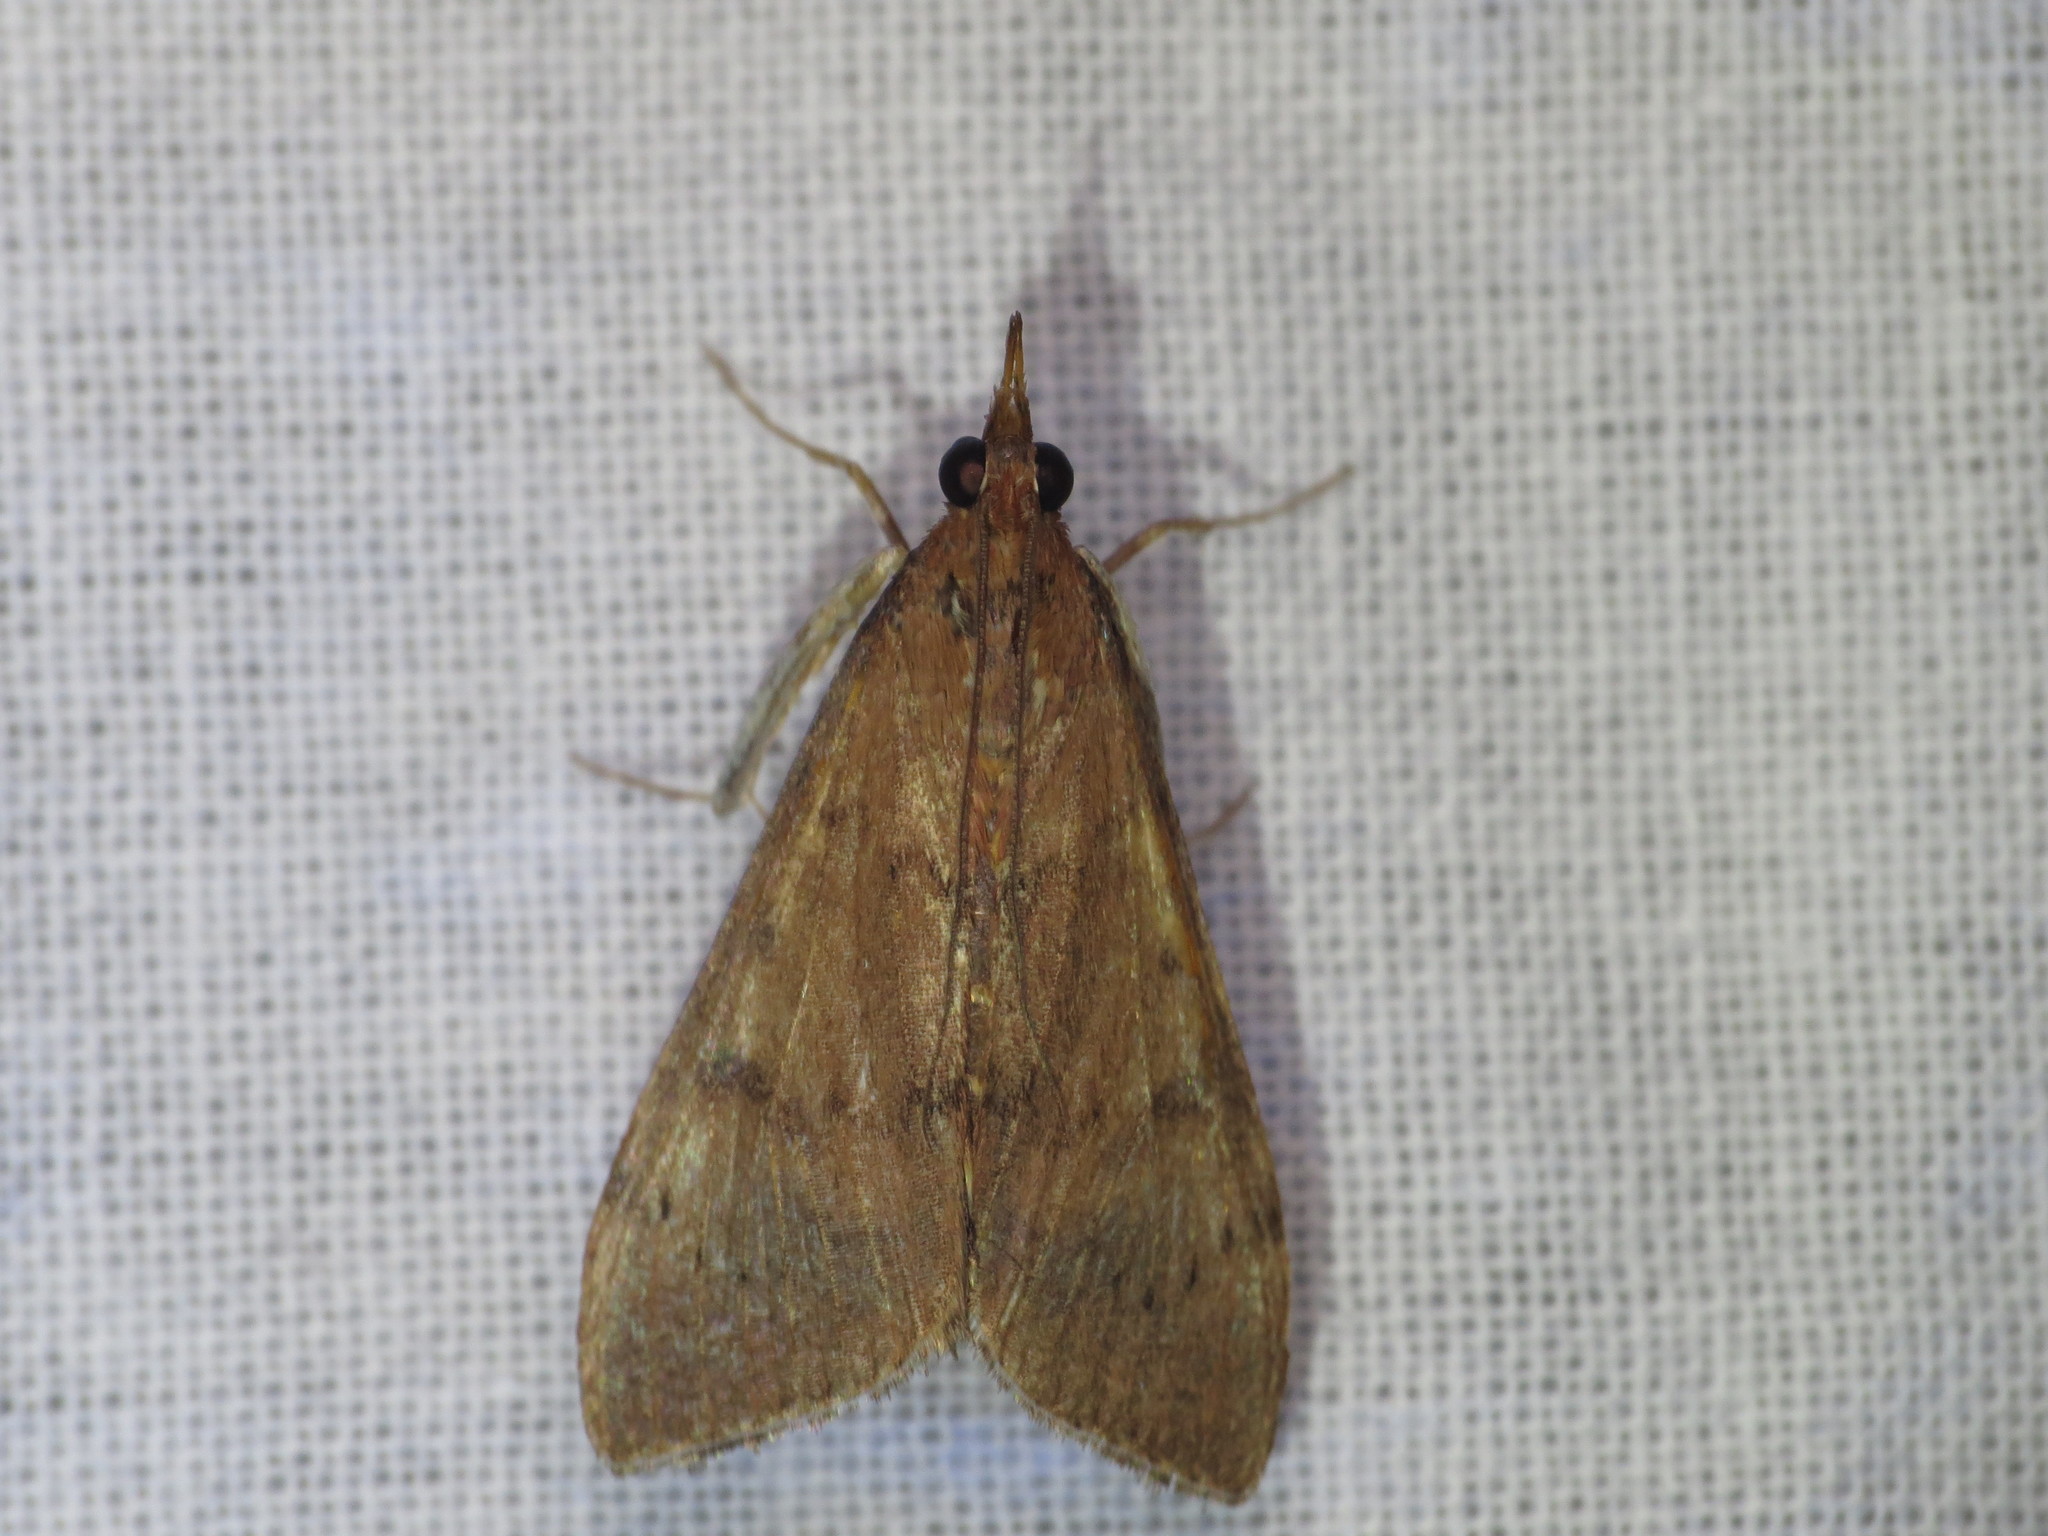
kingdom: Animalia
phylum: Arthropoda
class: Insecta
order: Lepidoptera
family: Crambidae
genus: Uresiphita
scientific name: Uresiphita ornithopteralis
